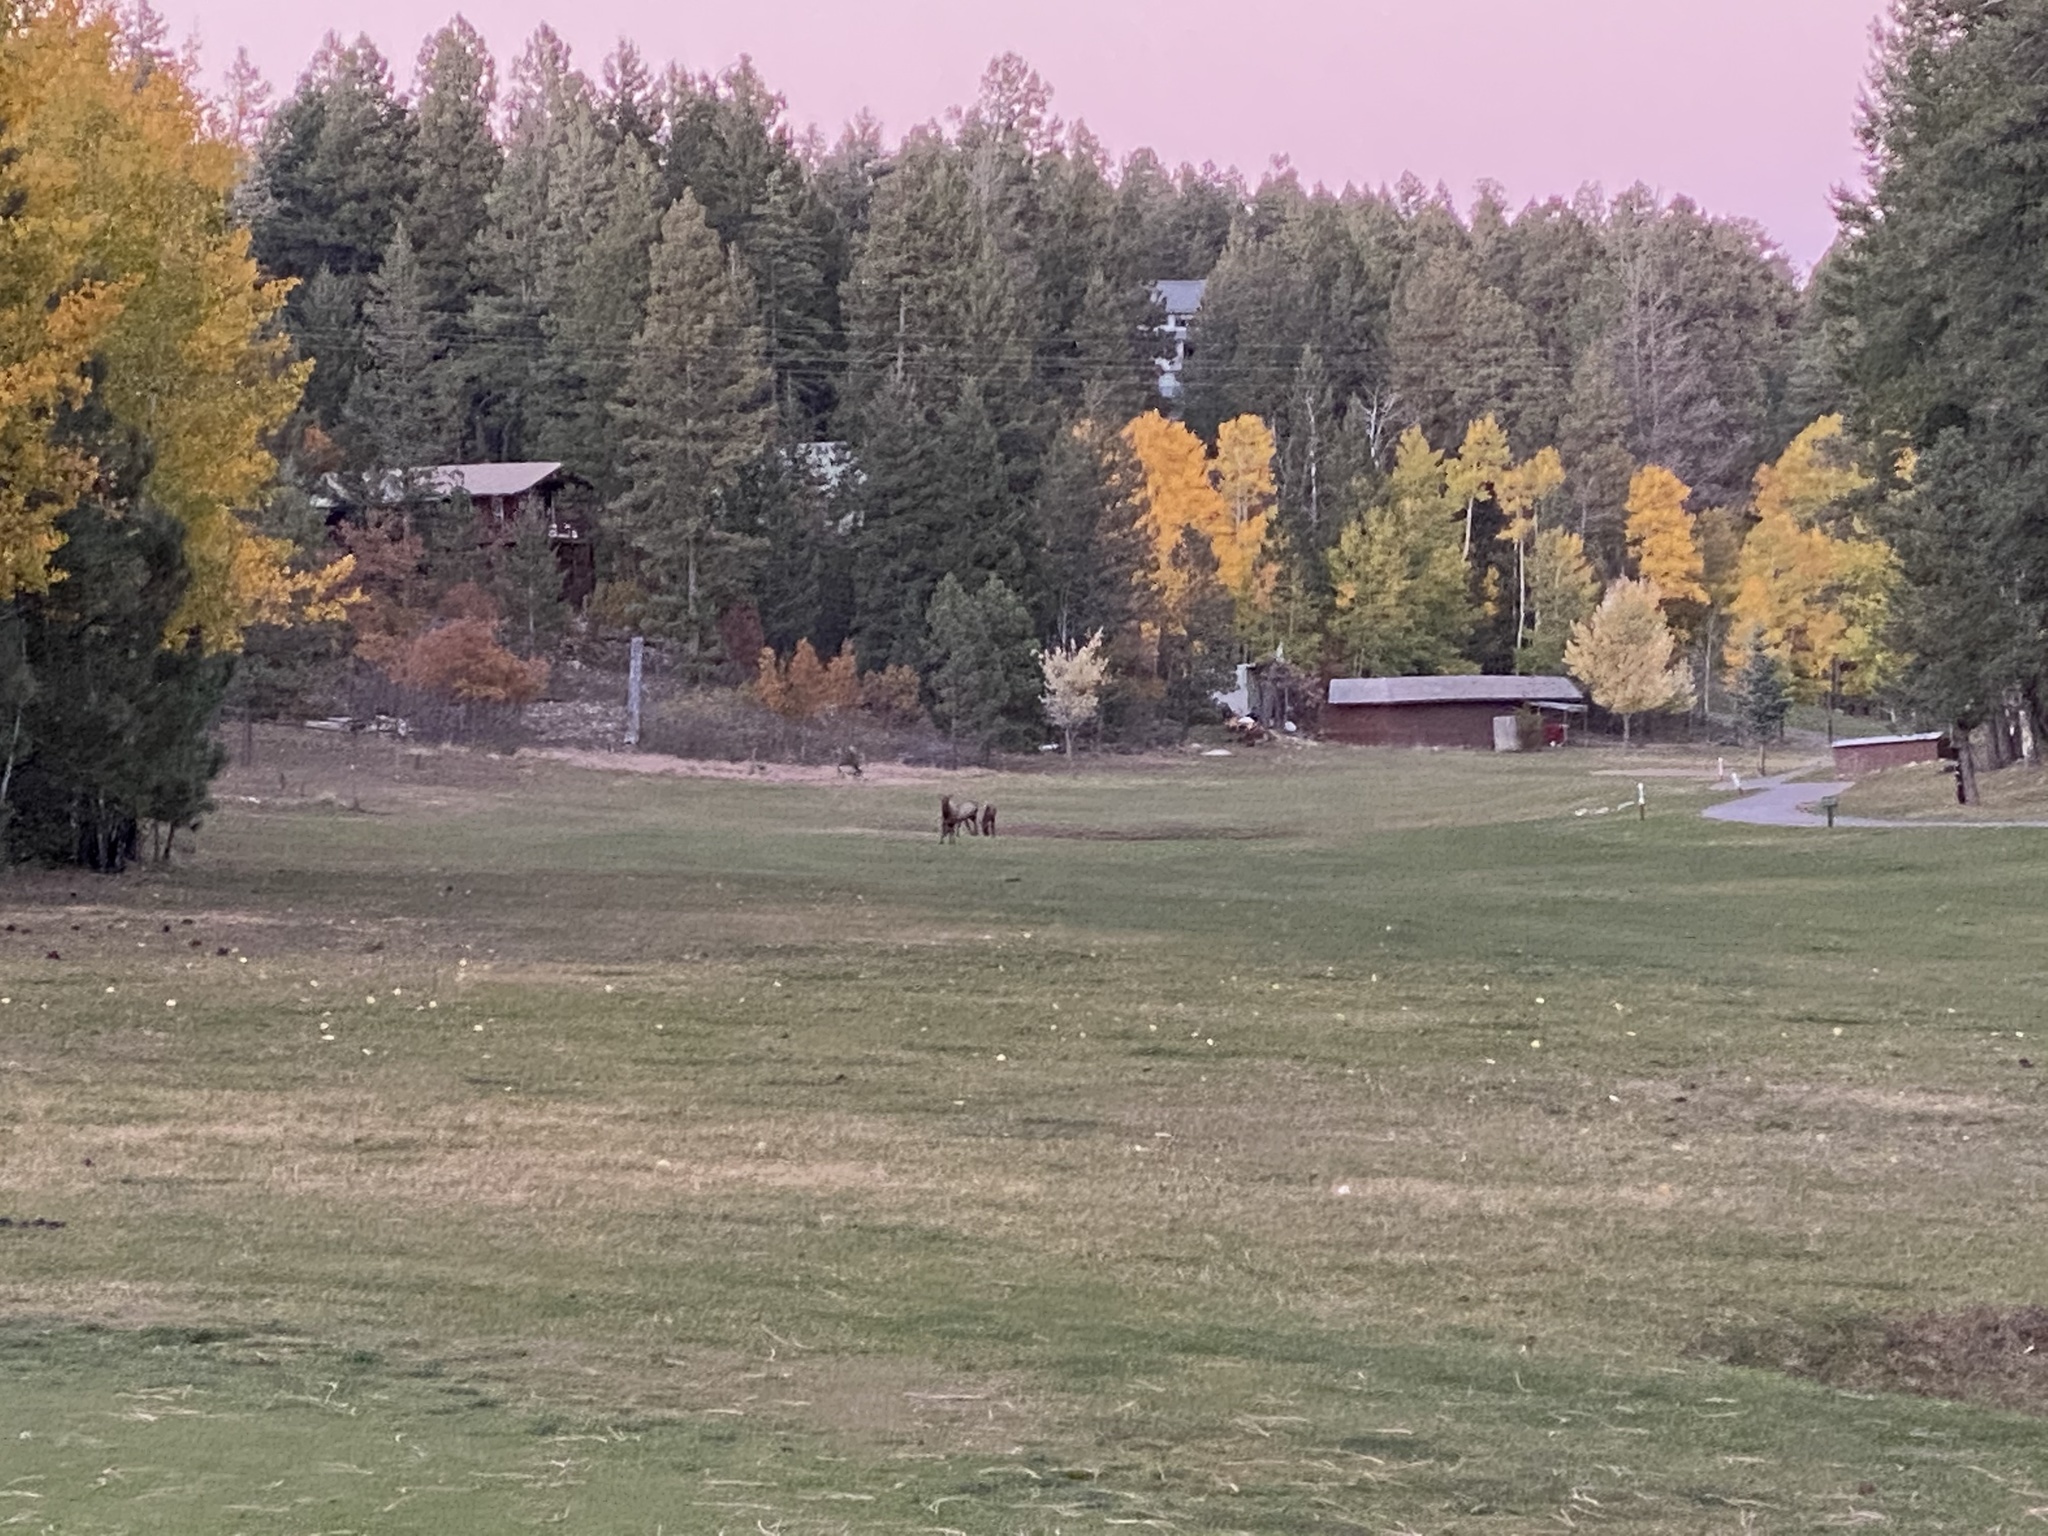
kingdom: Animalia
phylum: Chordata
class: Mammalia
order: Artiodactyla
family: Cervidae
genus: Cervus
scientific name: Cervus elaphus
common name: Red deer
